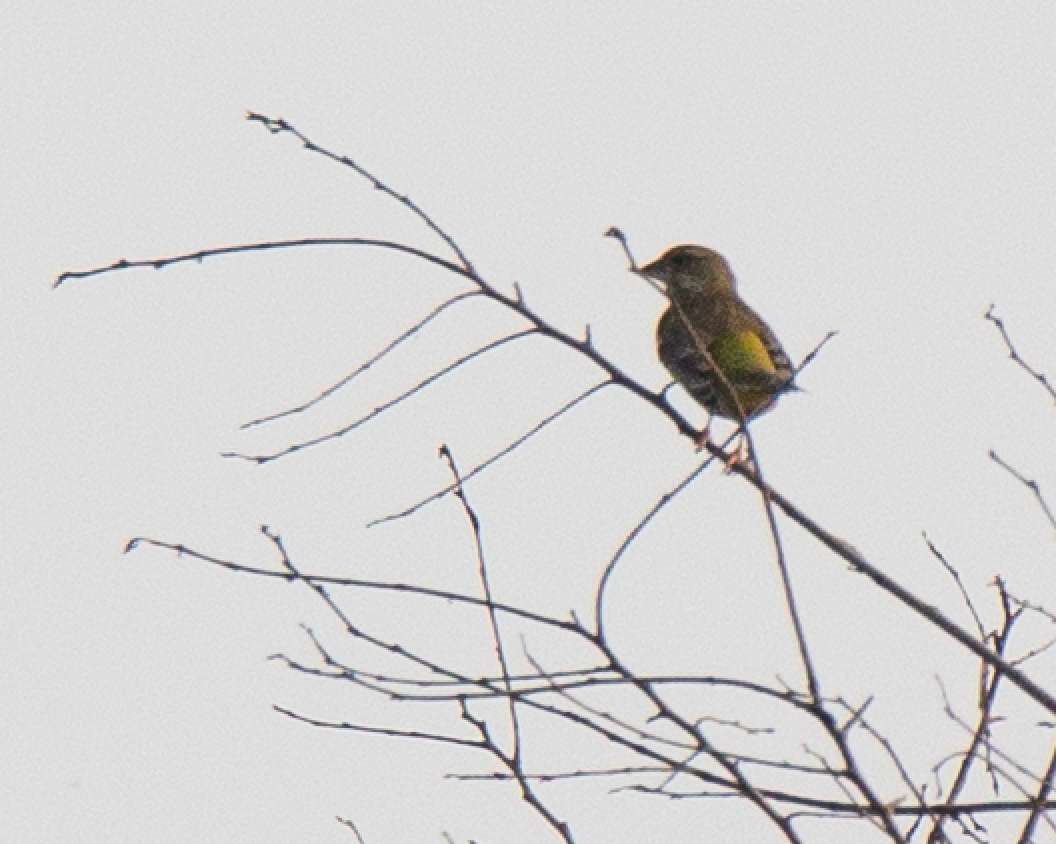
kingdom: Plantae
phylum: Tracheophyta
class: Liliopsida
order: Poales
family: Poaceae
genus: Chloris
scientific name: Chloris chloris
